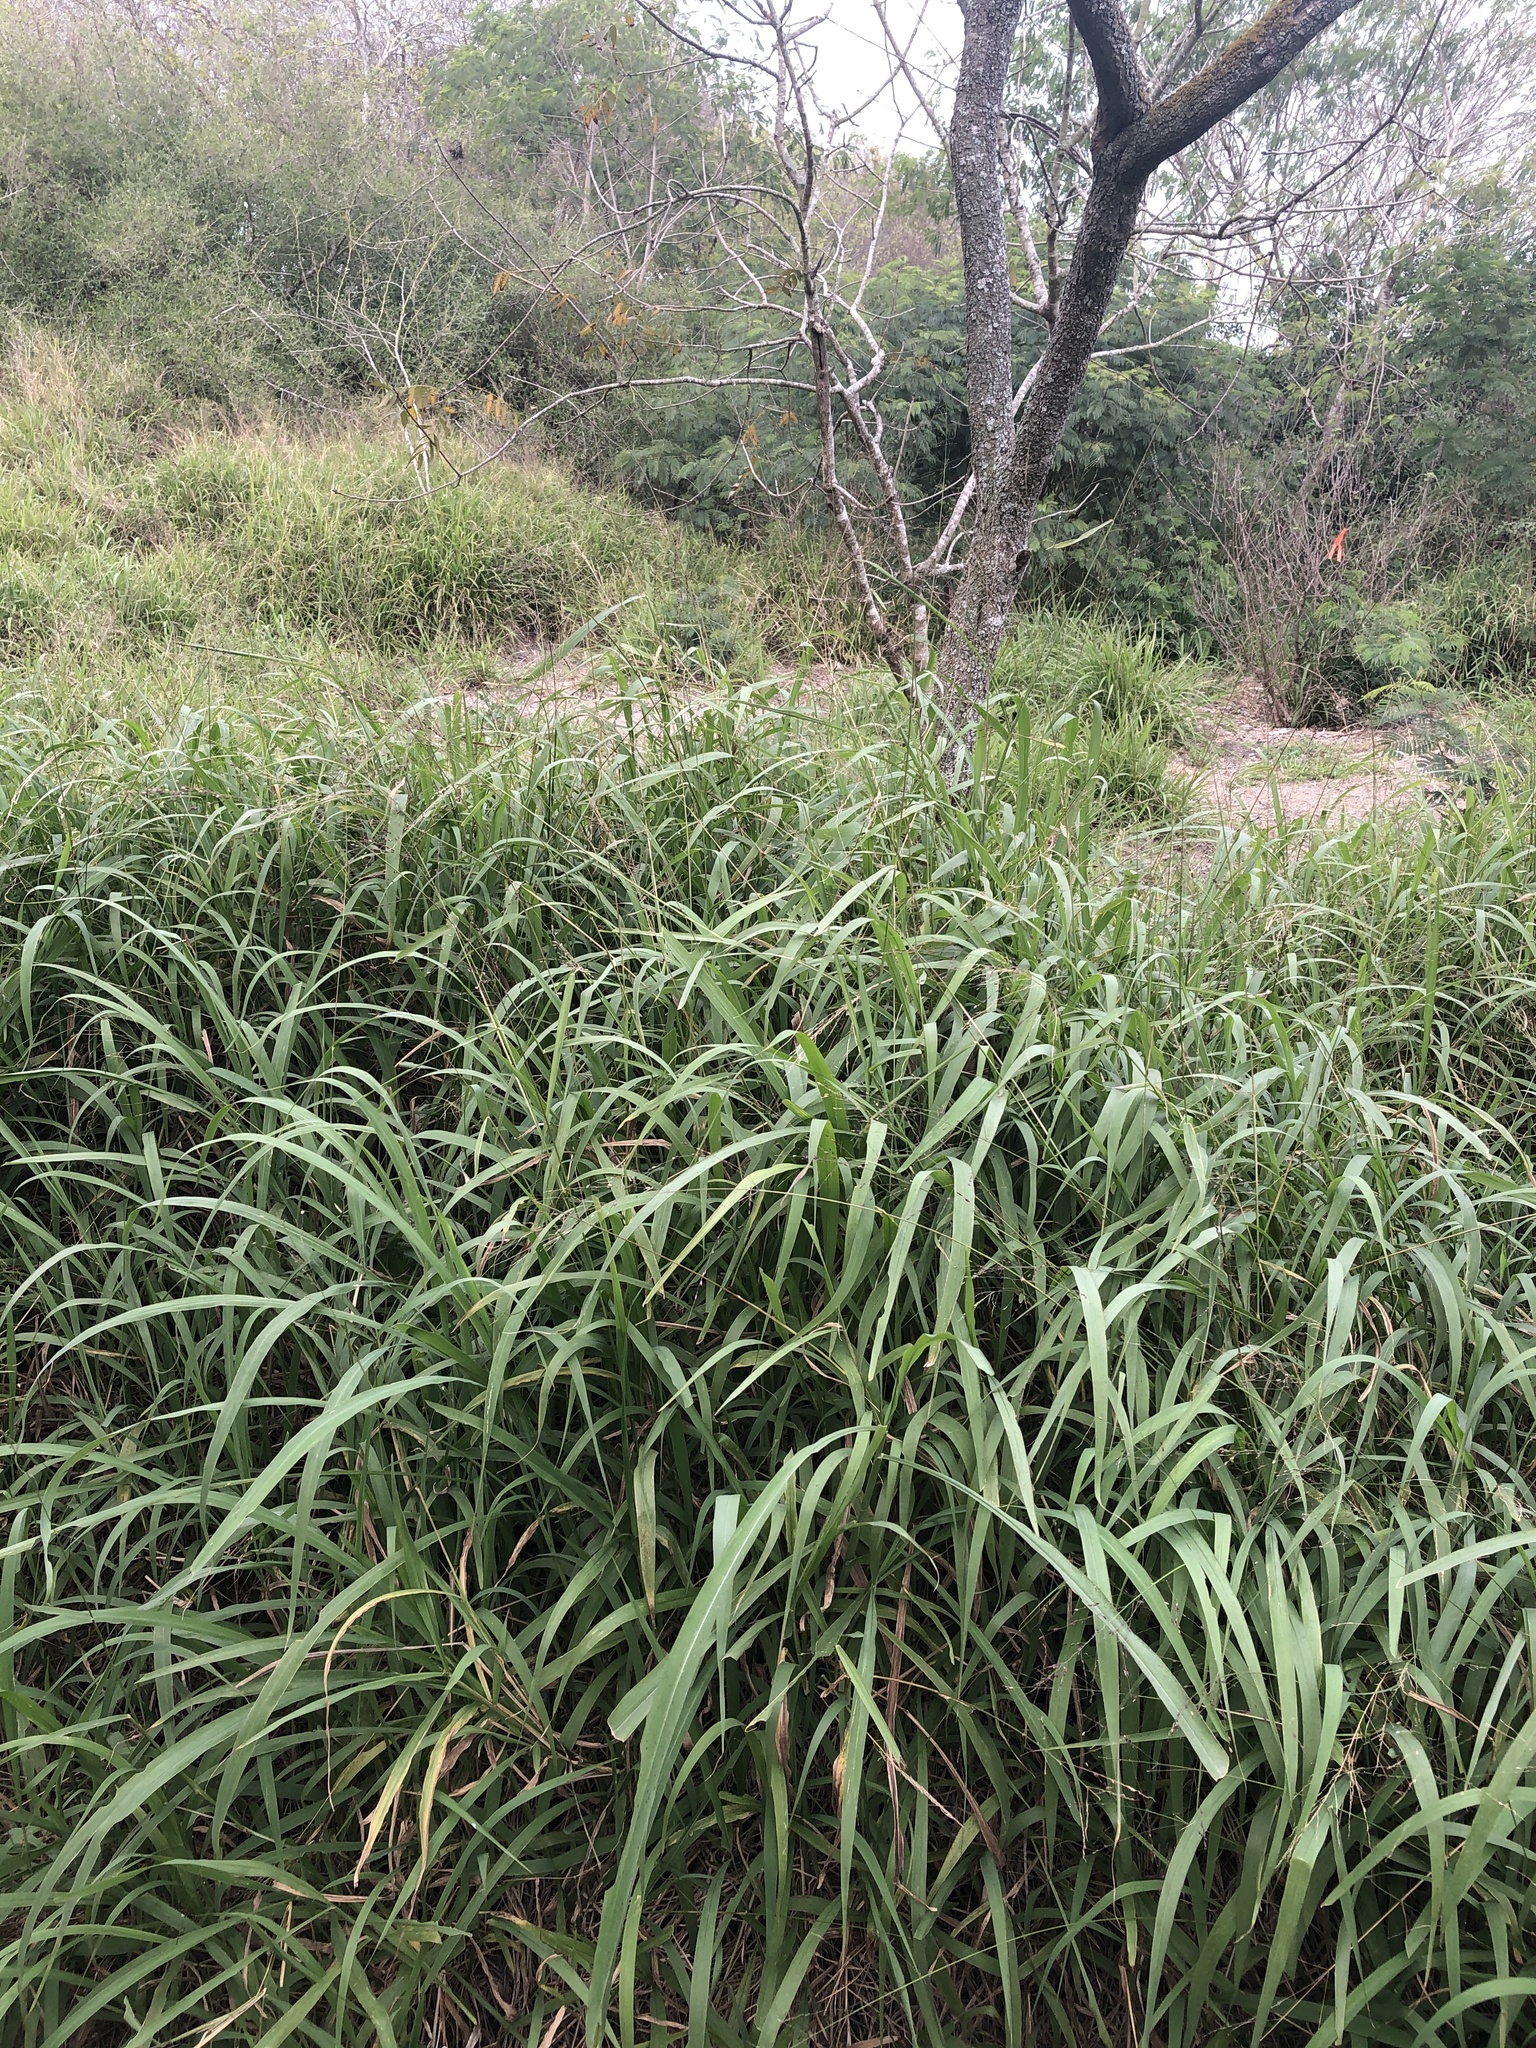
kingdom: Plantae
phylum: Tracheophyta
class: Liliopsida
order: Poales
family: Poaceae
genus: Megathyrsus
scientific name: Megathyrsus maximus
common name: Guineagrass
